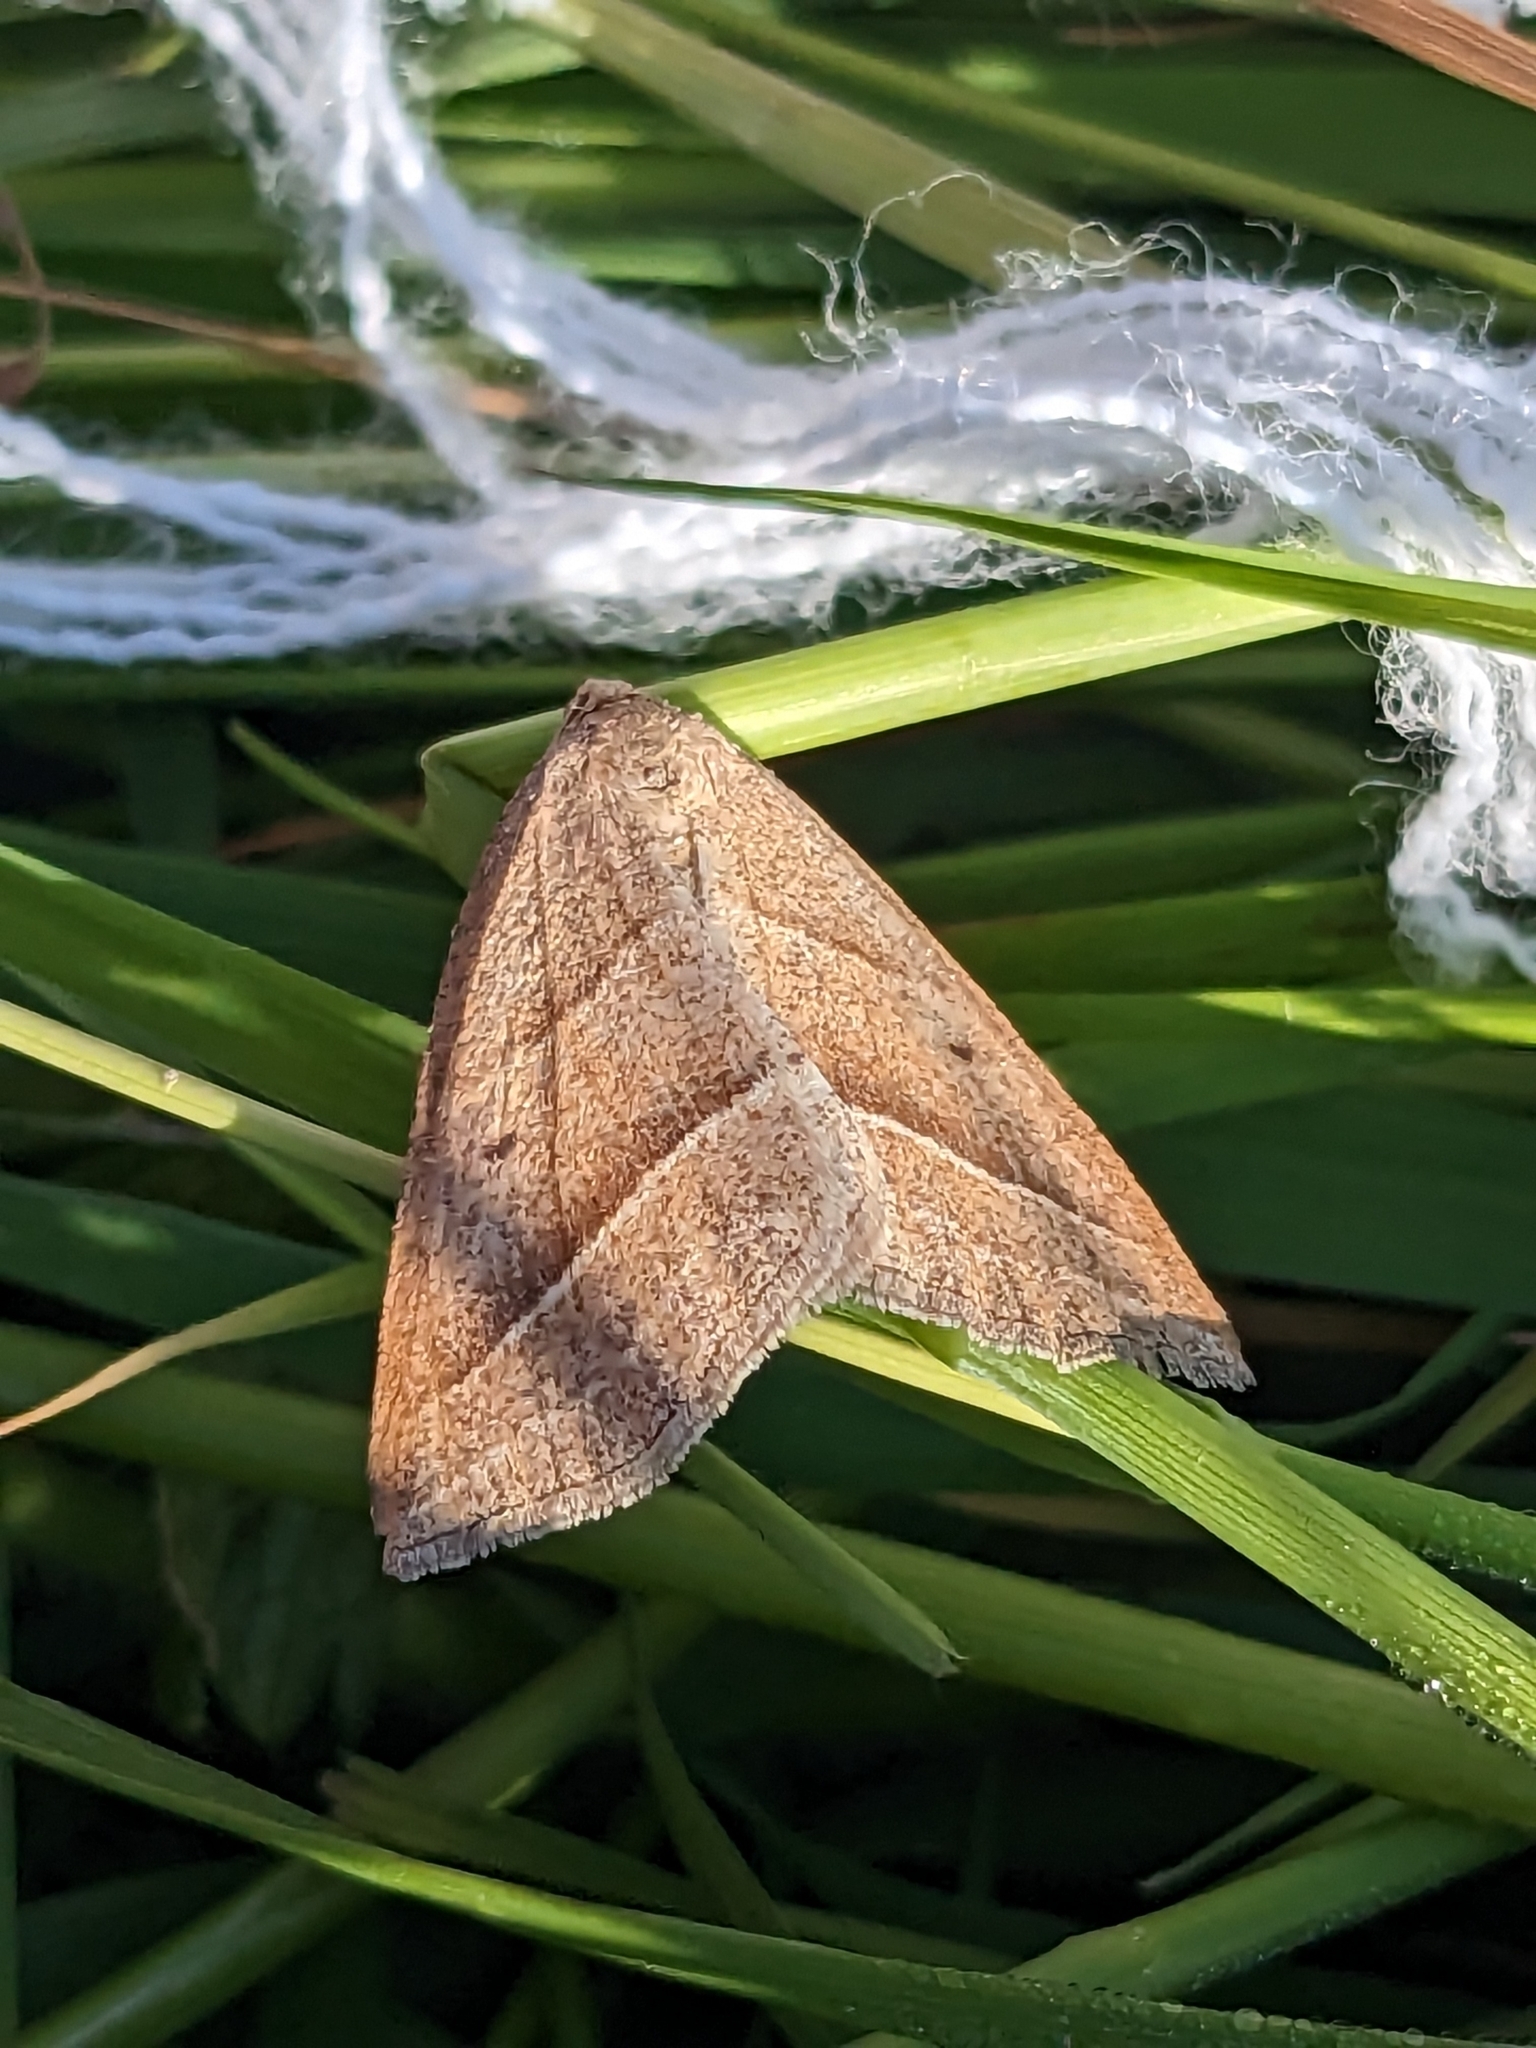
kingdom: Animalia
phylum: Arthropoda
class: Insecta
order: Lepidoptera
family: Pterophoridae
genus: Pterophorus
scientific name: Pterophorus Petrophora chlorosata
